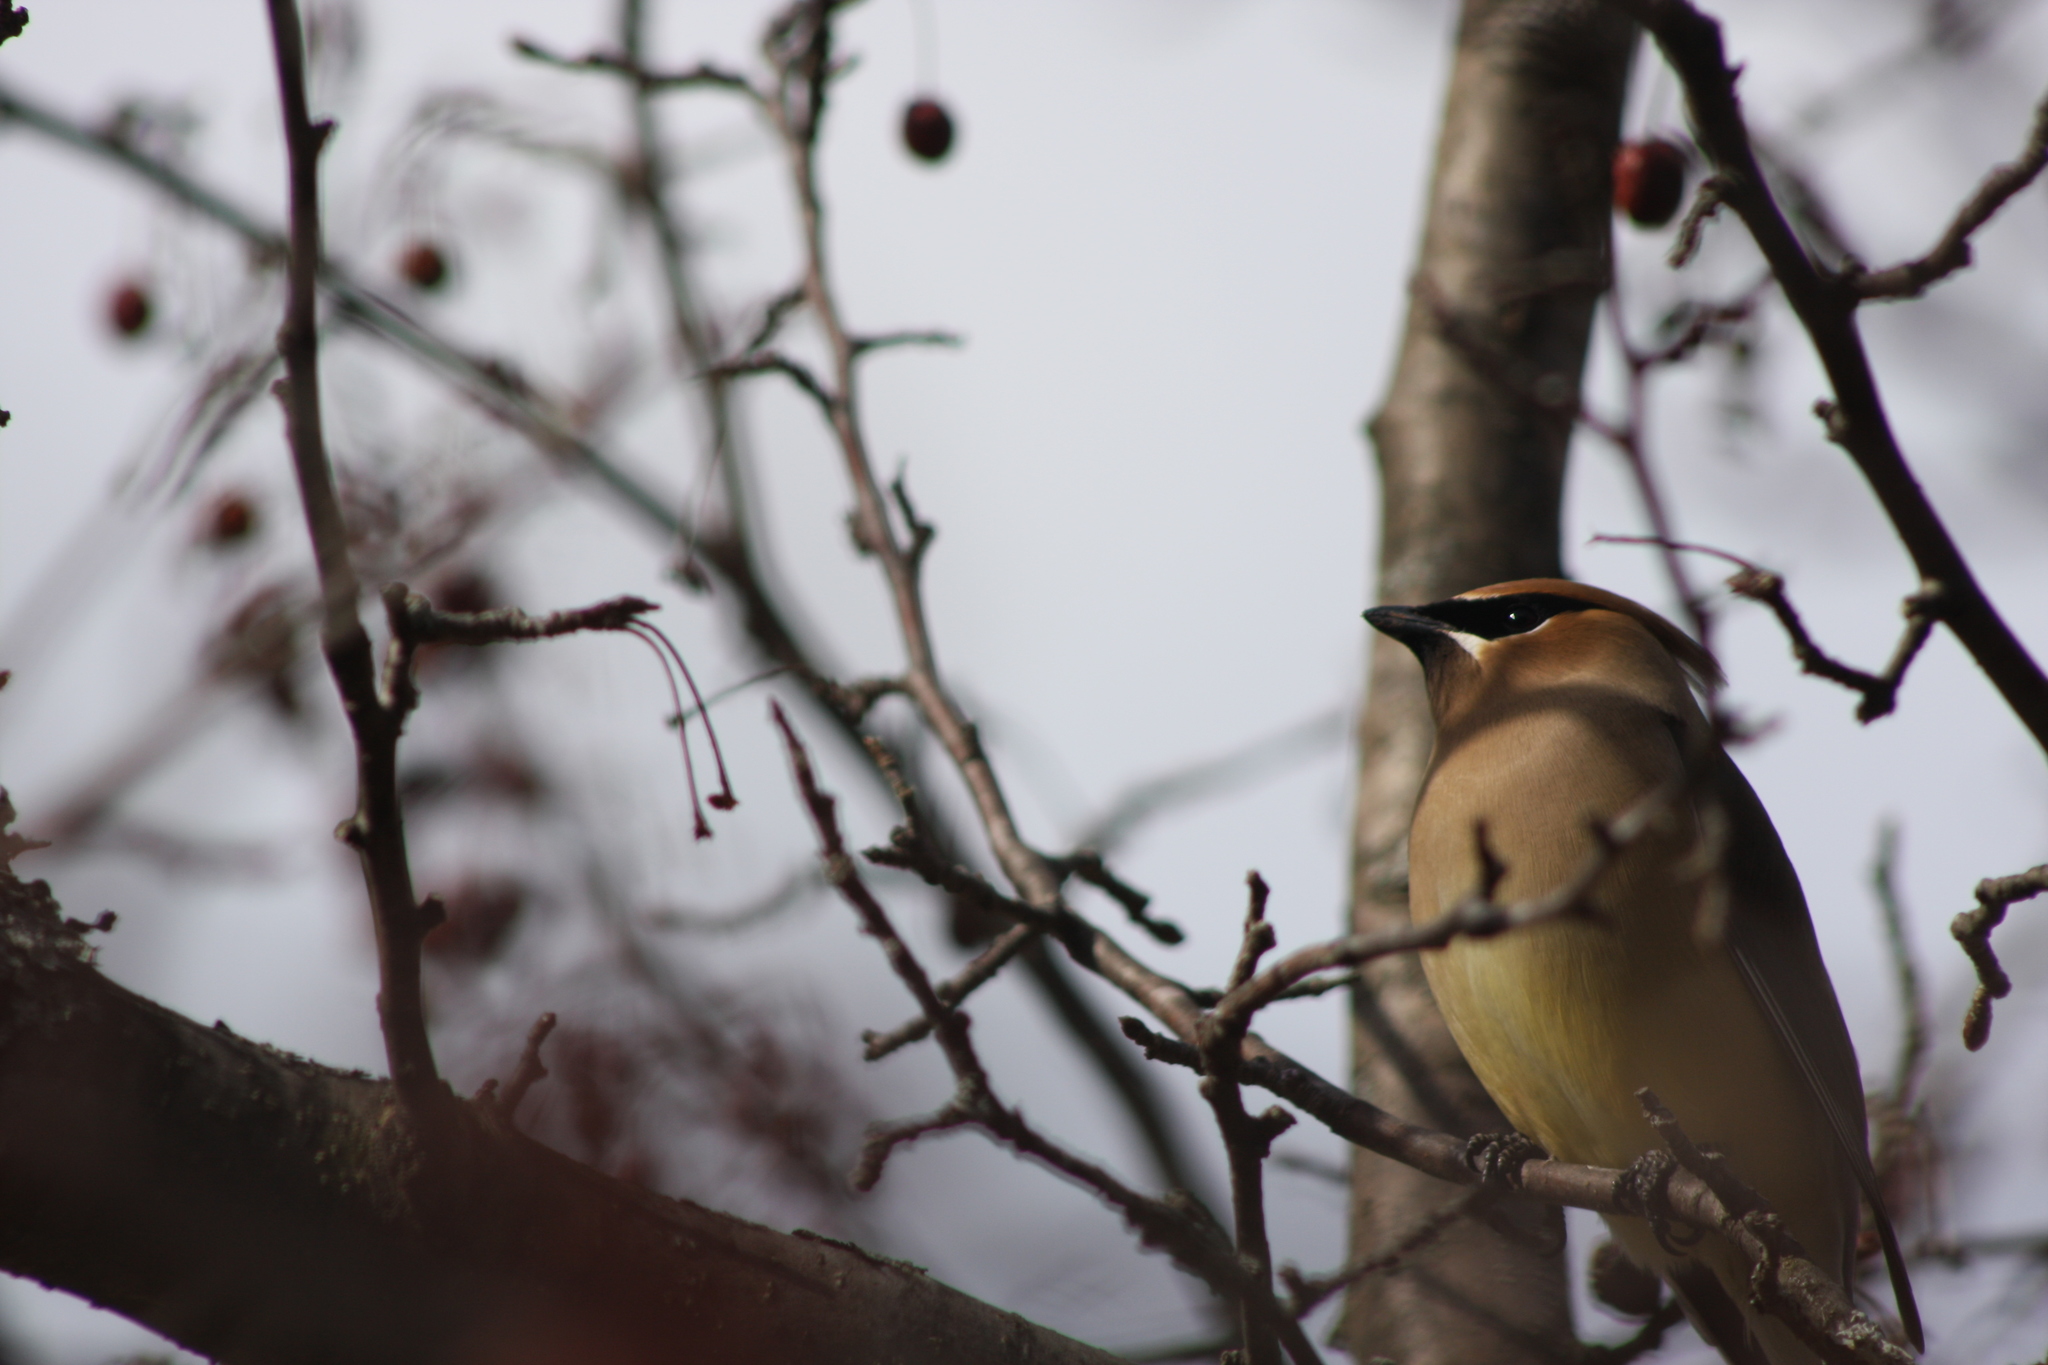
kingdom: Animalia
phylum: Chordata
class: Aves
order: Passeriformes
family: Bombycillidae
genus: Bombycilla
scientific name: Bombycilla cedrorum
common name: Cedar waxwing
